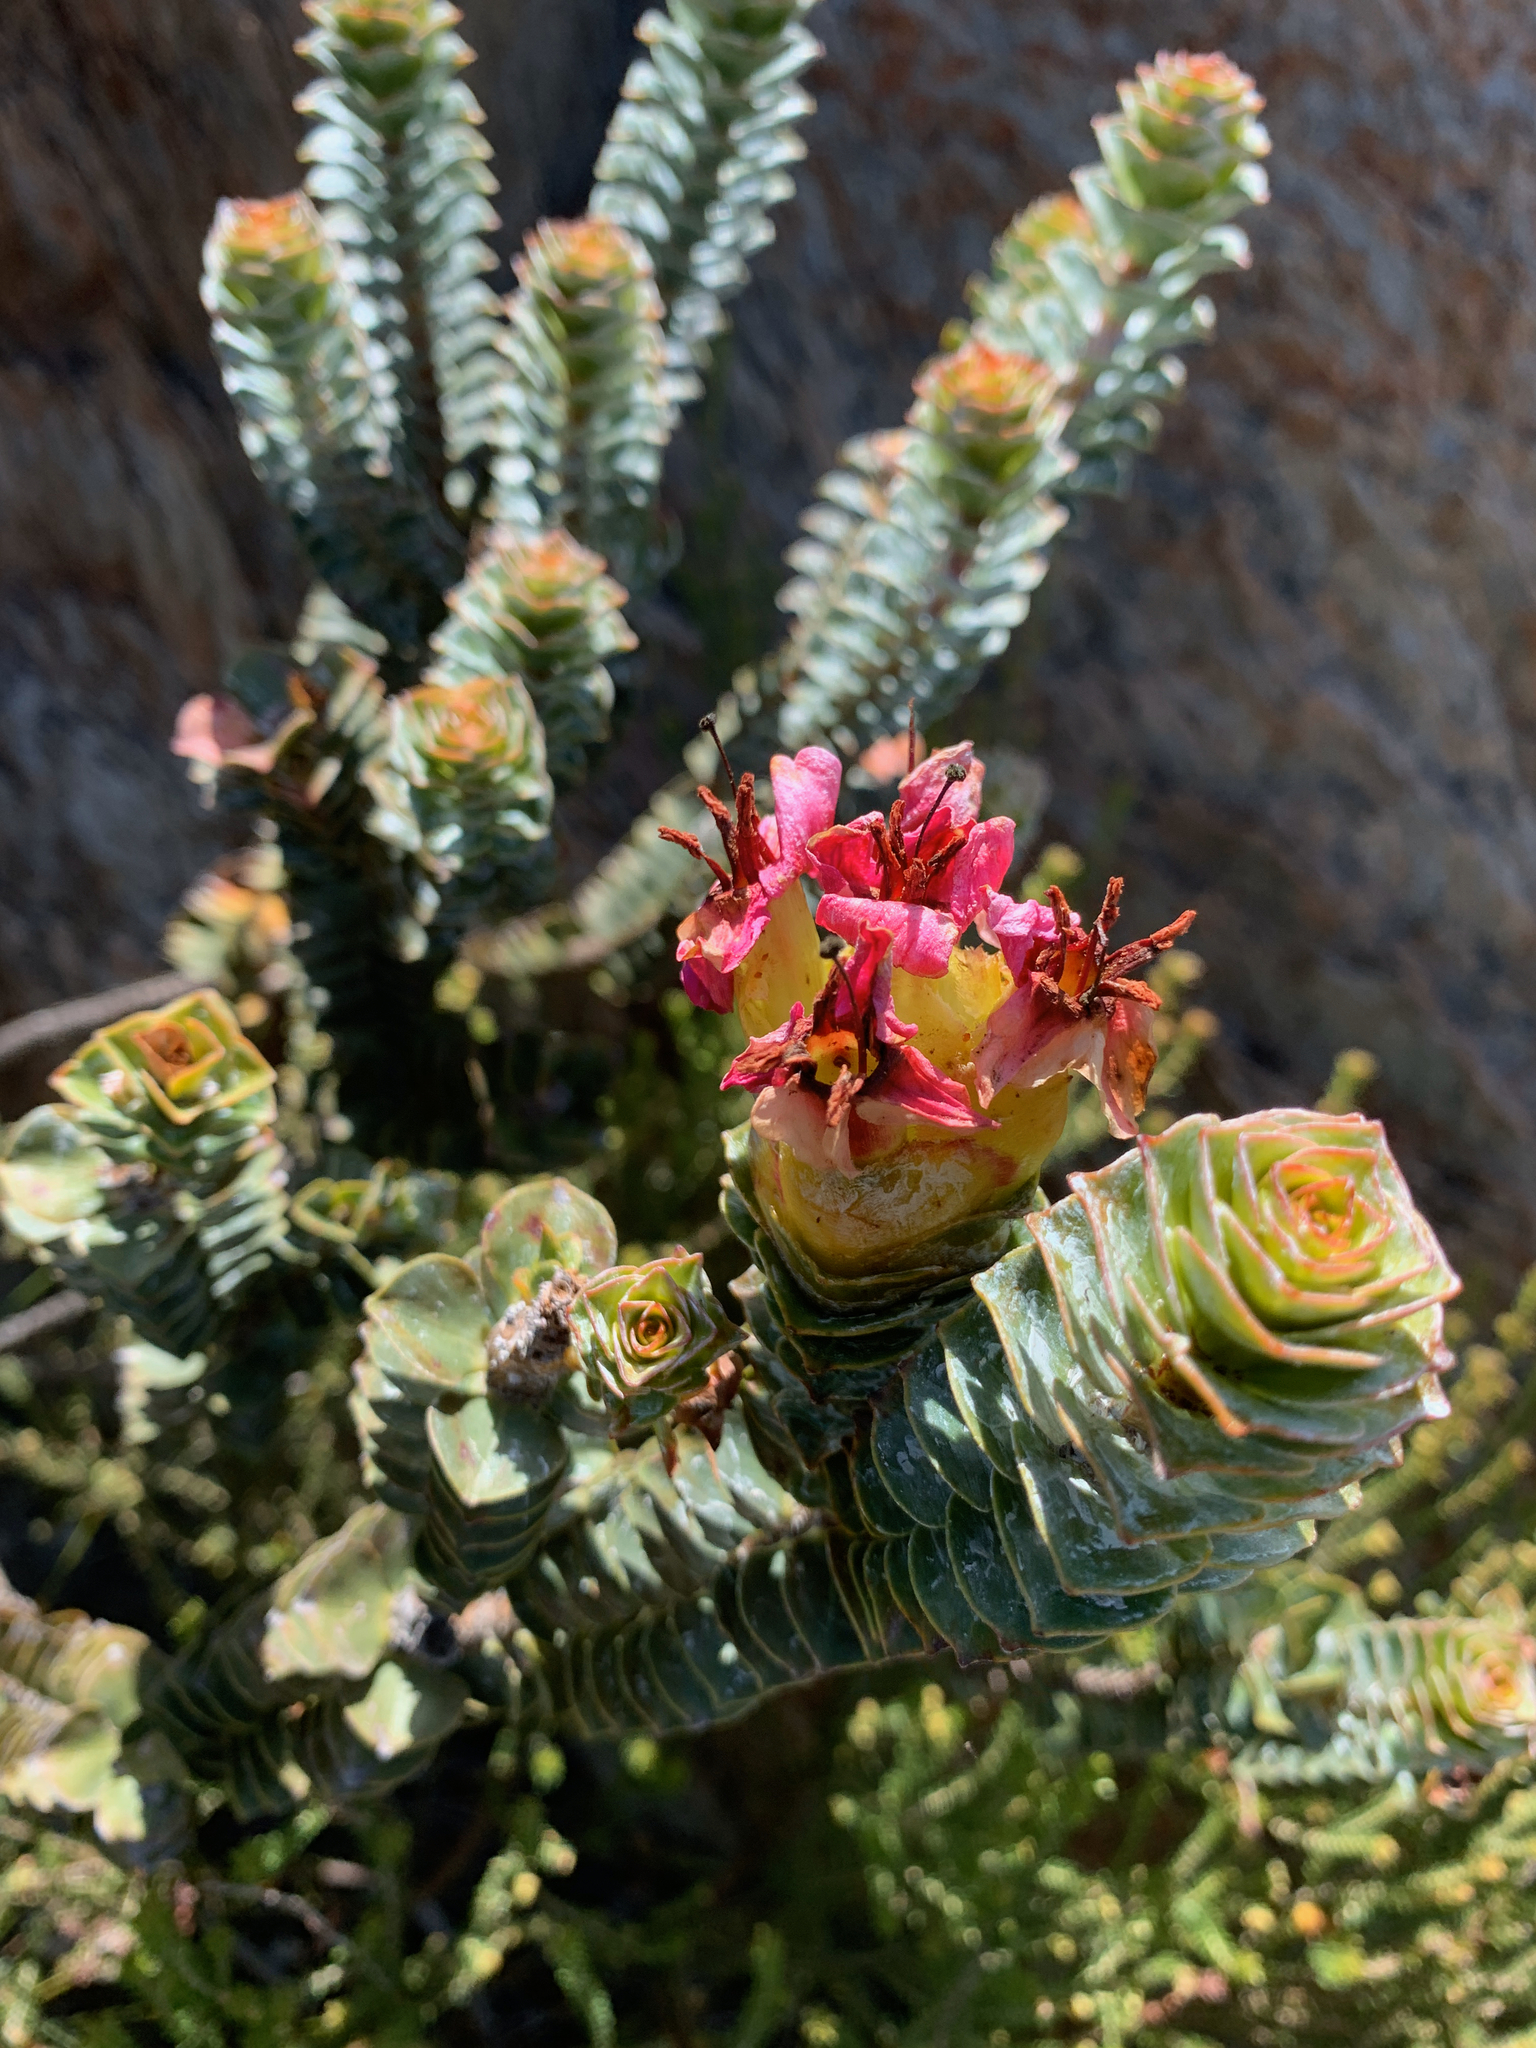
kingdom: Plantae
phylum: Tracheophyta
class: Magnoliopsida
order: Myrtales
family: Penaeaceae
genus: Saltera
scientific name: Saltera sarcocolla
